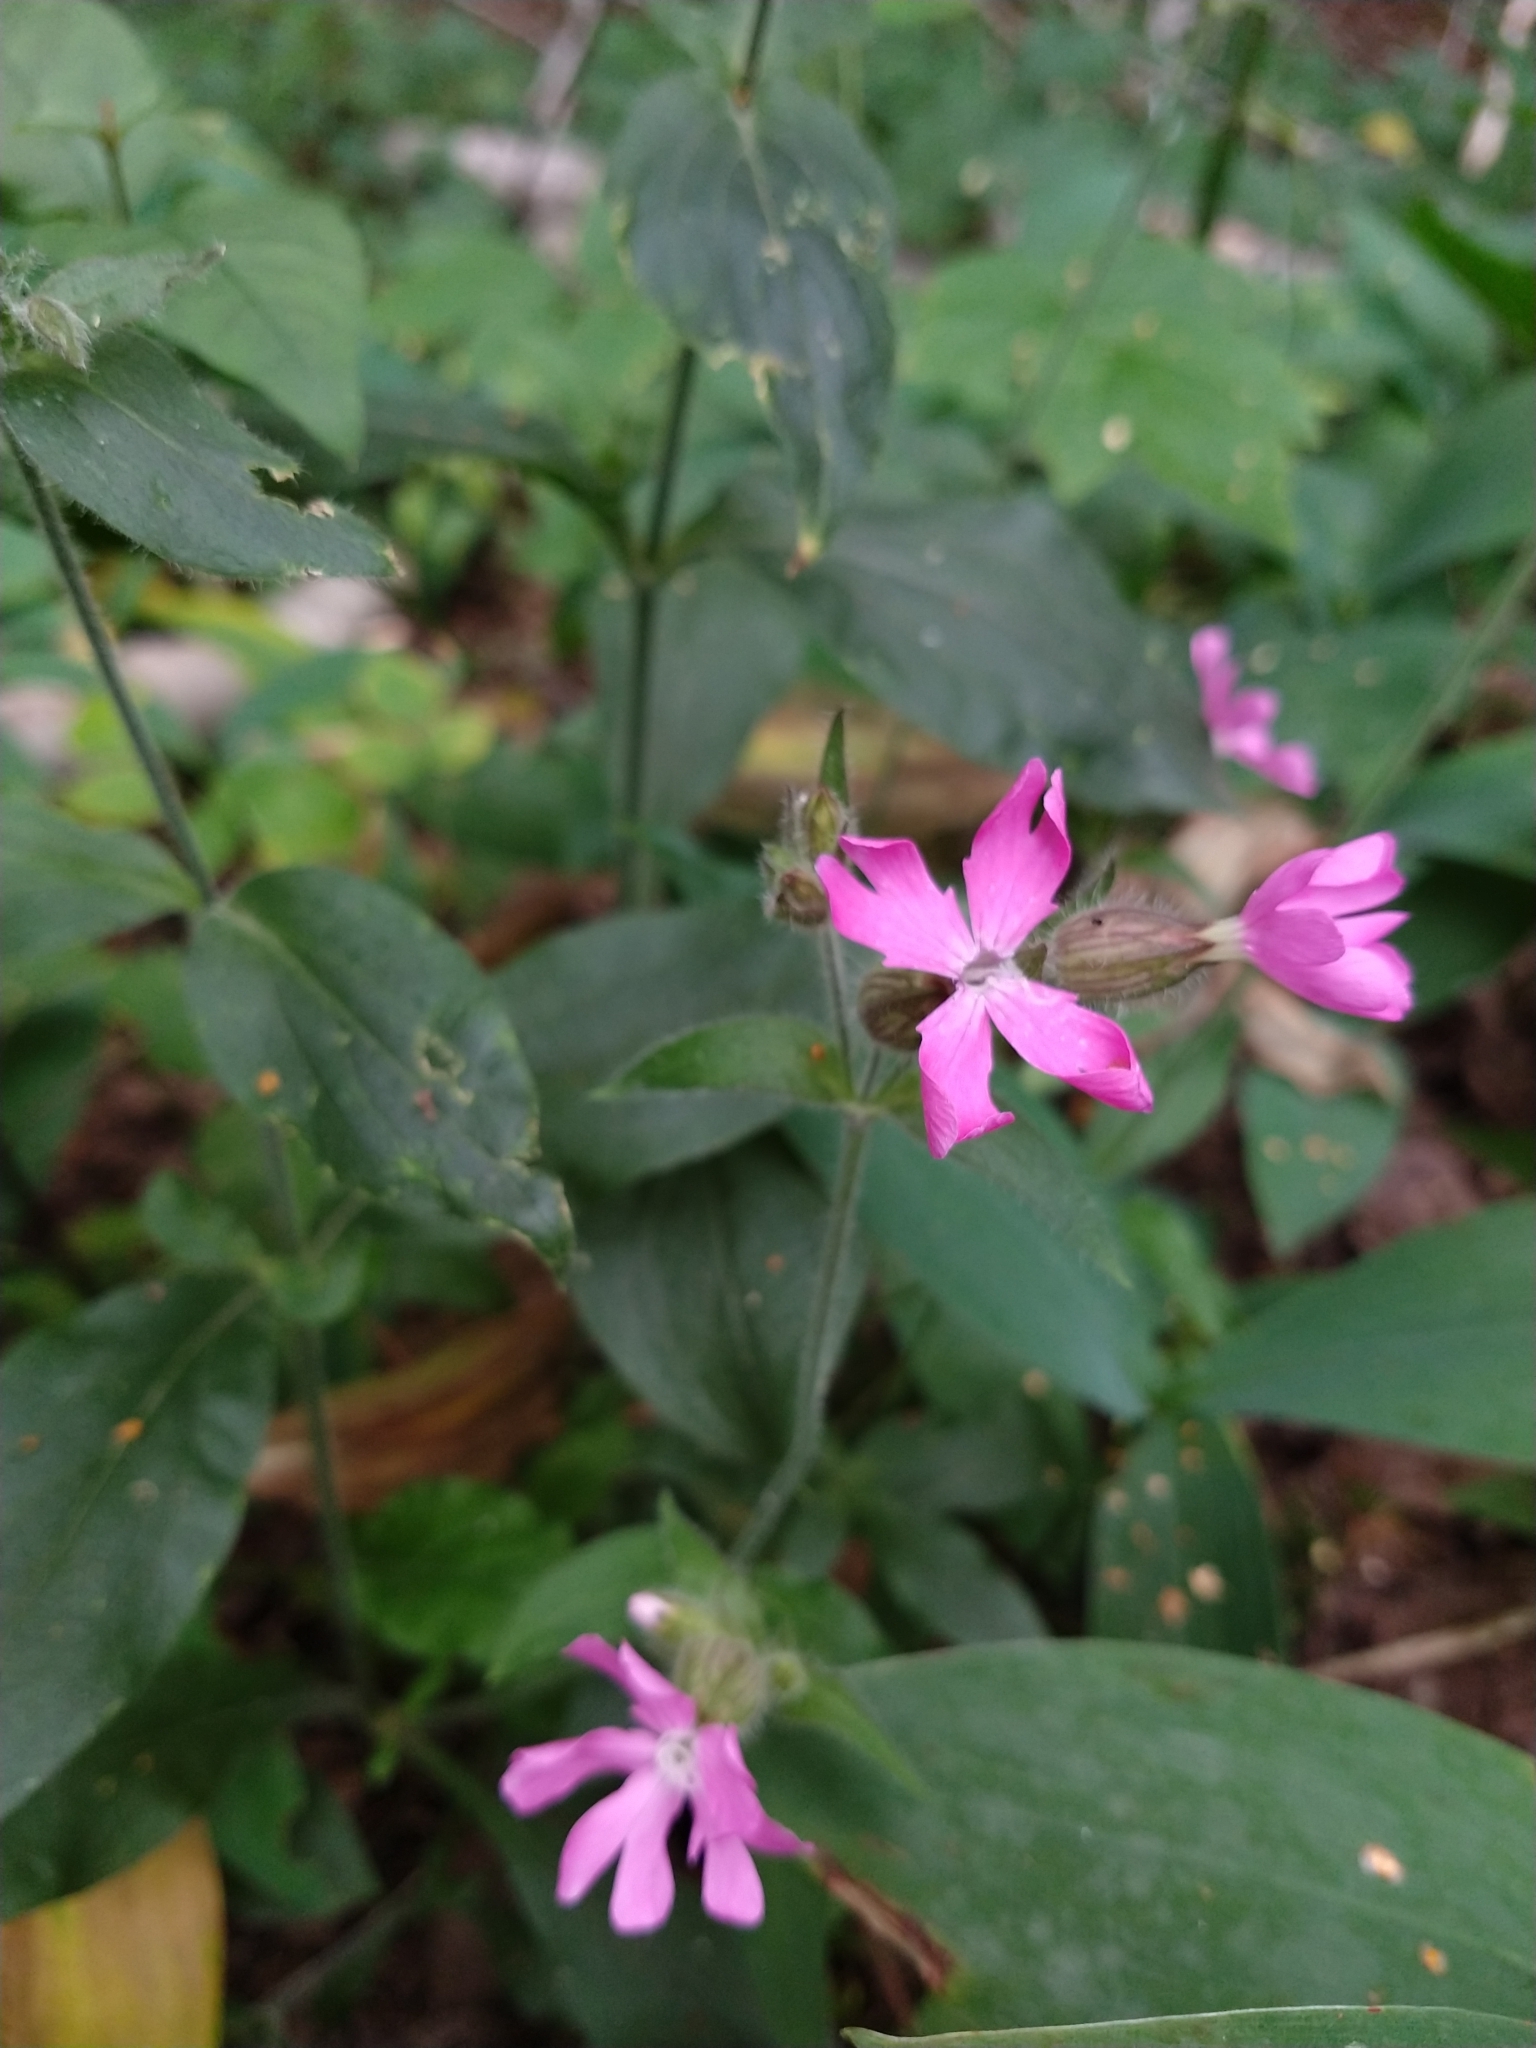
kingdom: Plantae
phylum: Tracheophyta
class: Magnoliopsida
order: Caryophyllales
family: Caryophyllaceae
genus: Silene
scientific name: Silene dioica
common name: Red campion
